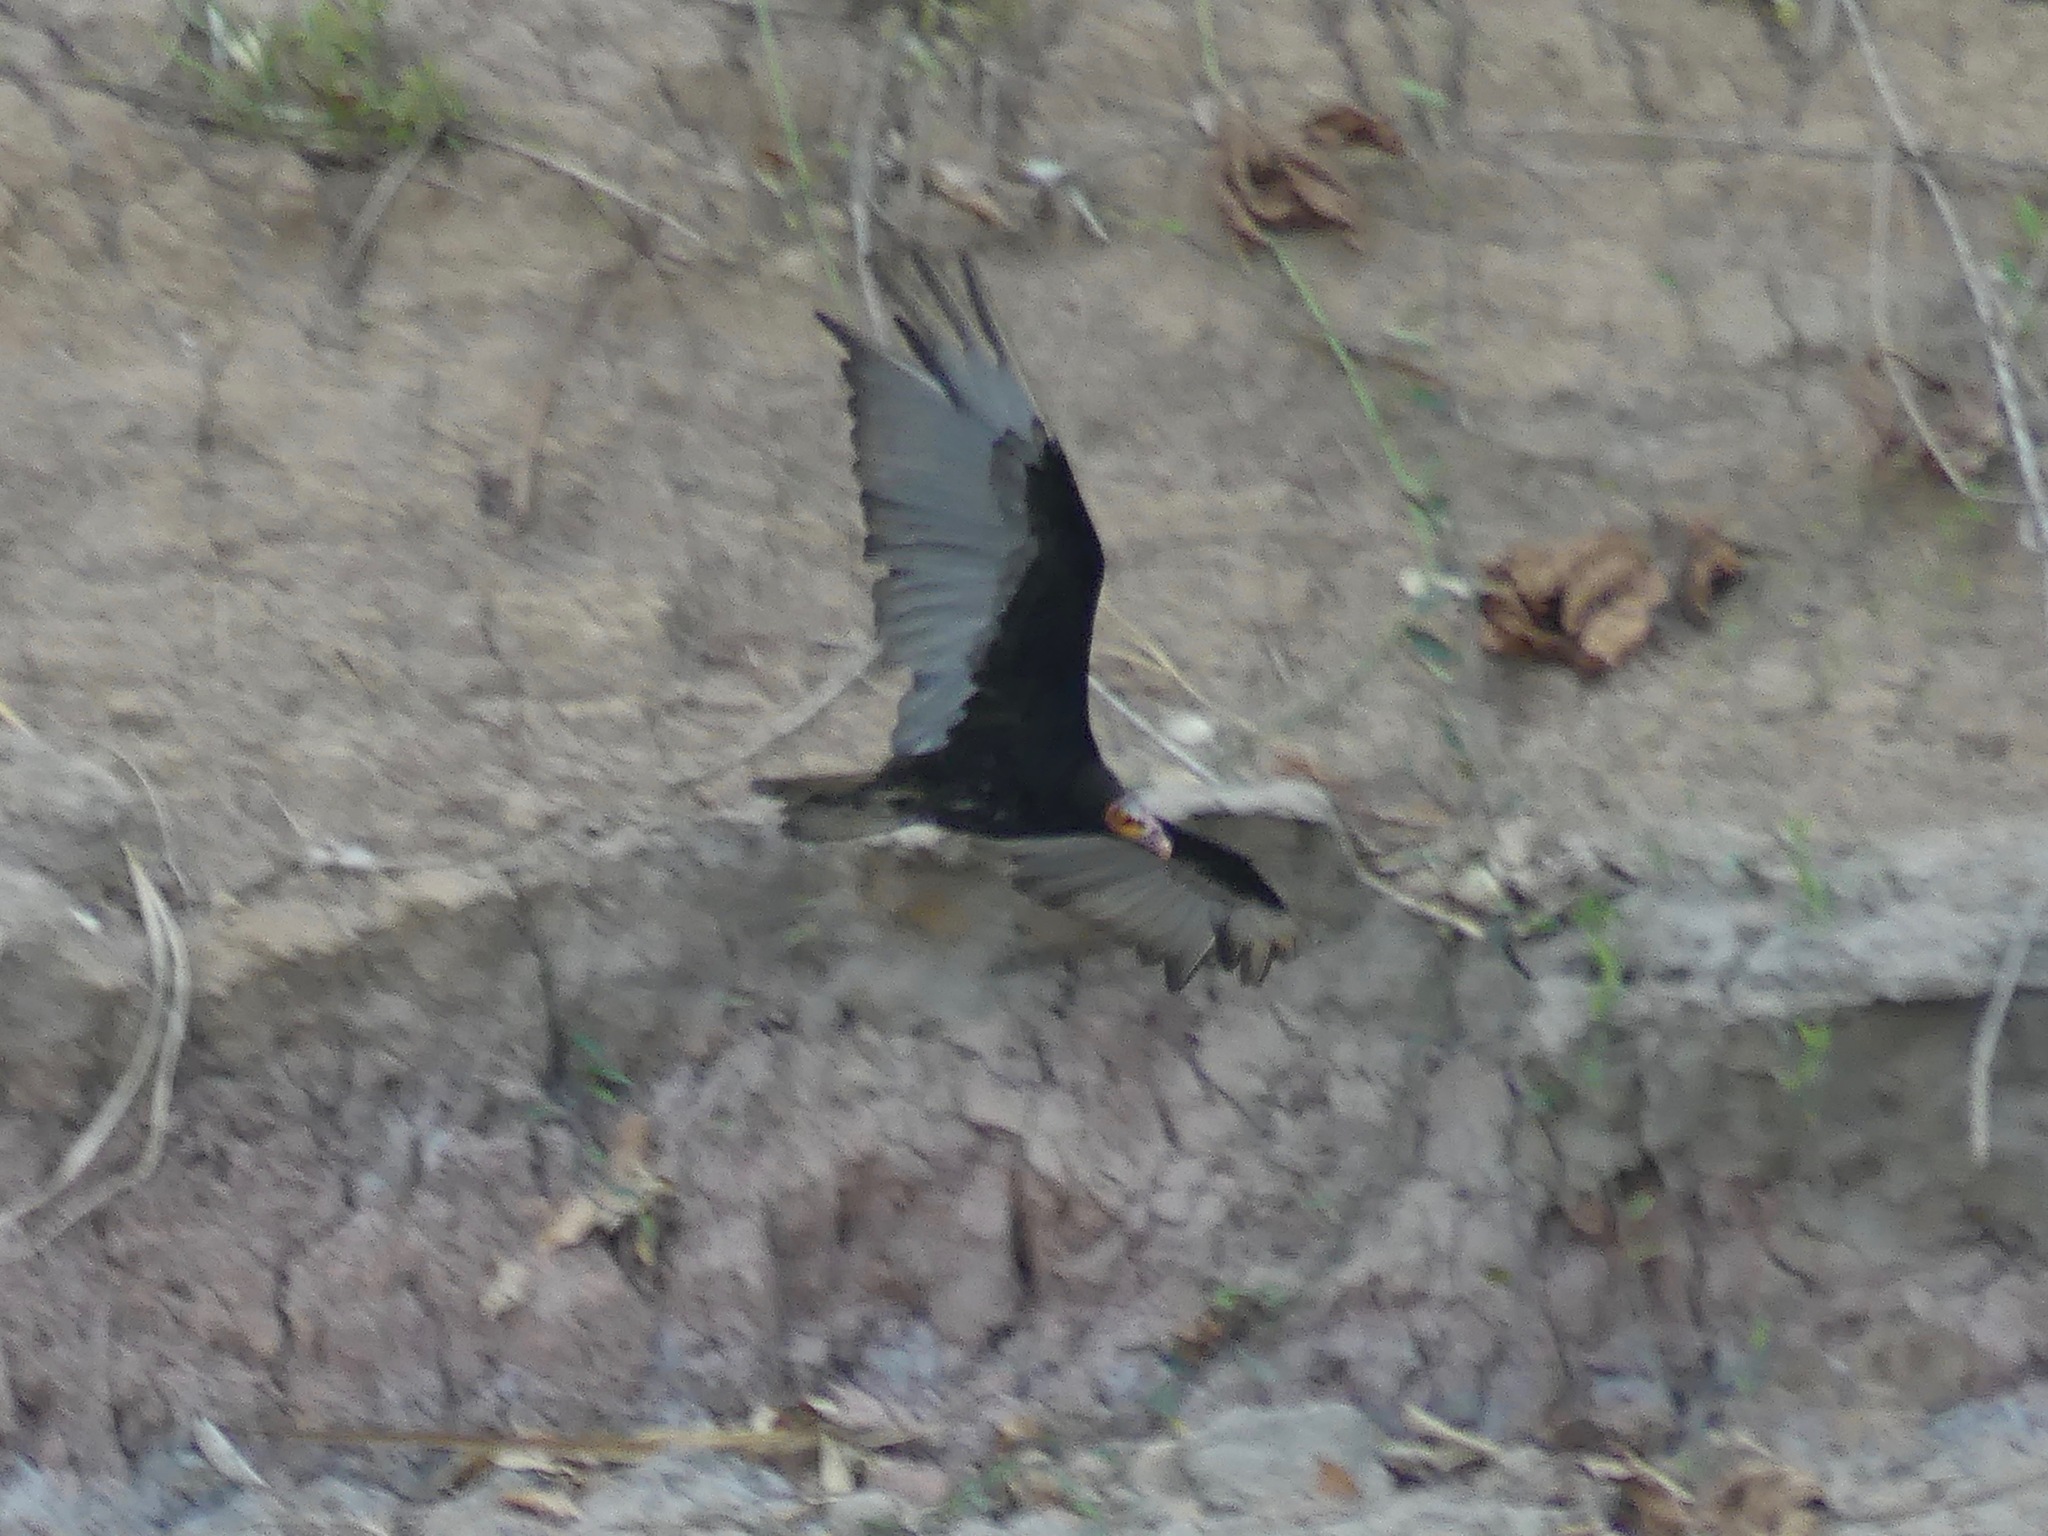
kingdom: Animalia
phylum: Chordata
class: Aves
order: Accipitriformes
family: Cathartidae
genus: Cathartes
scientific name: Cathartes burrovianus
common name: Lesser yellow-headed vulture
